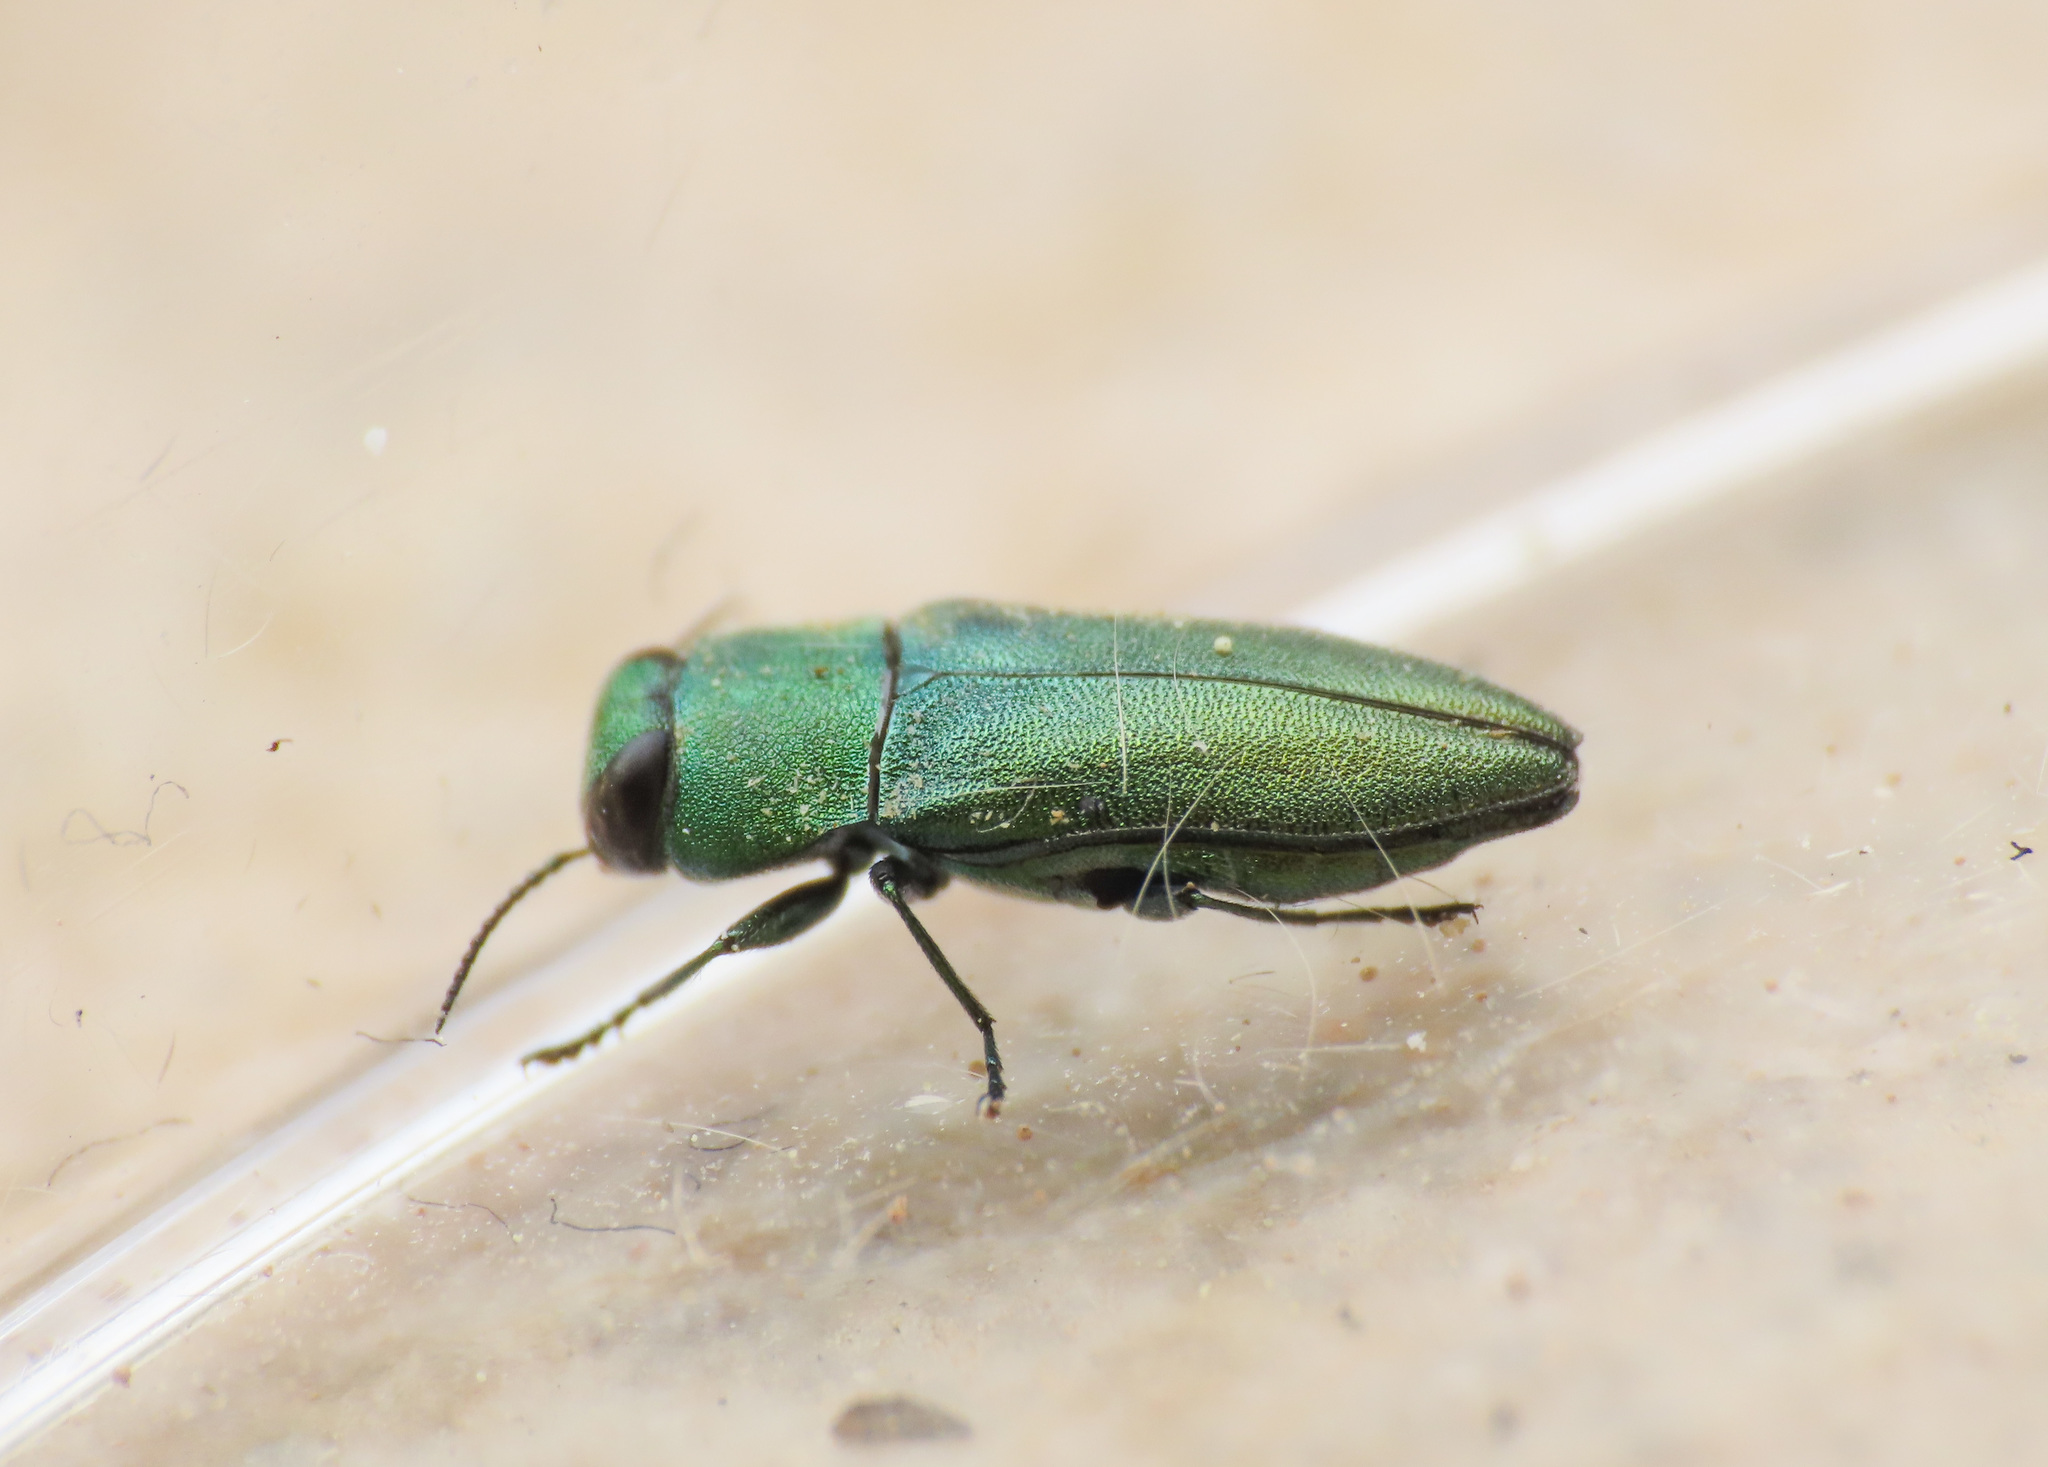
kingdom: Animalia
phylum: Arthropoda
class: Insecta
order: Coleoptera
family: Buprestidae
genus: Anthaxia
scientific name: Anthaxia millefolii
